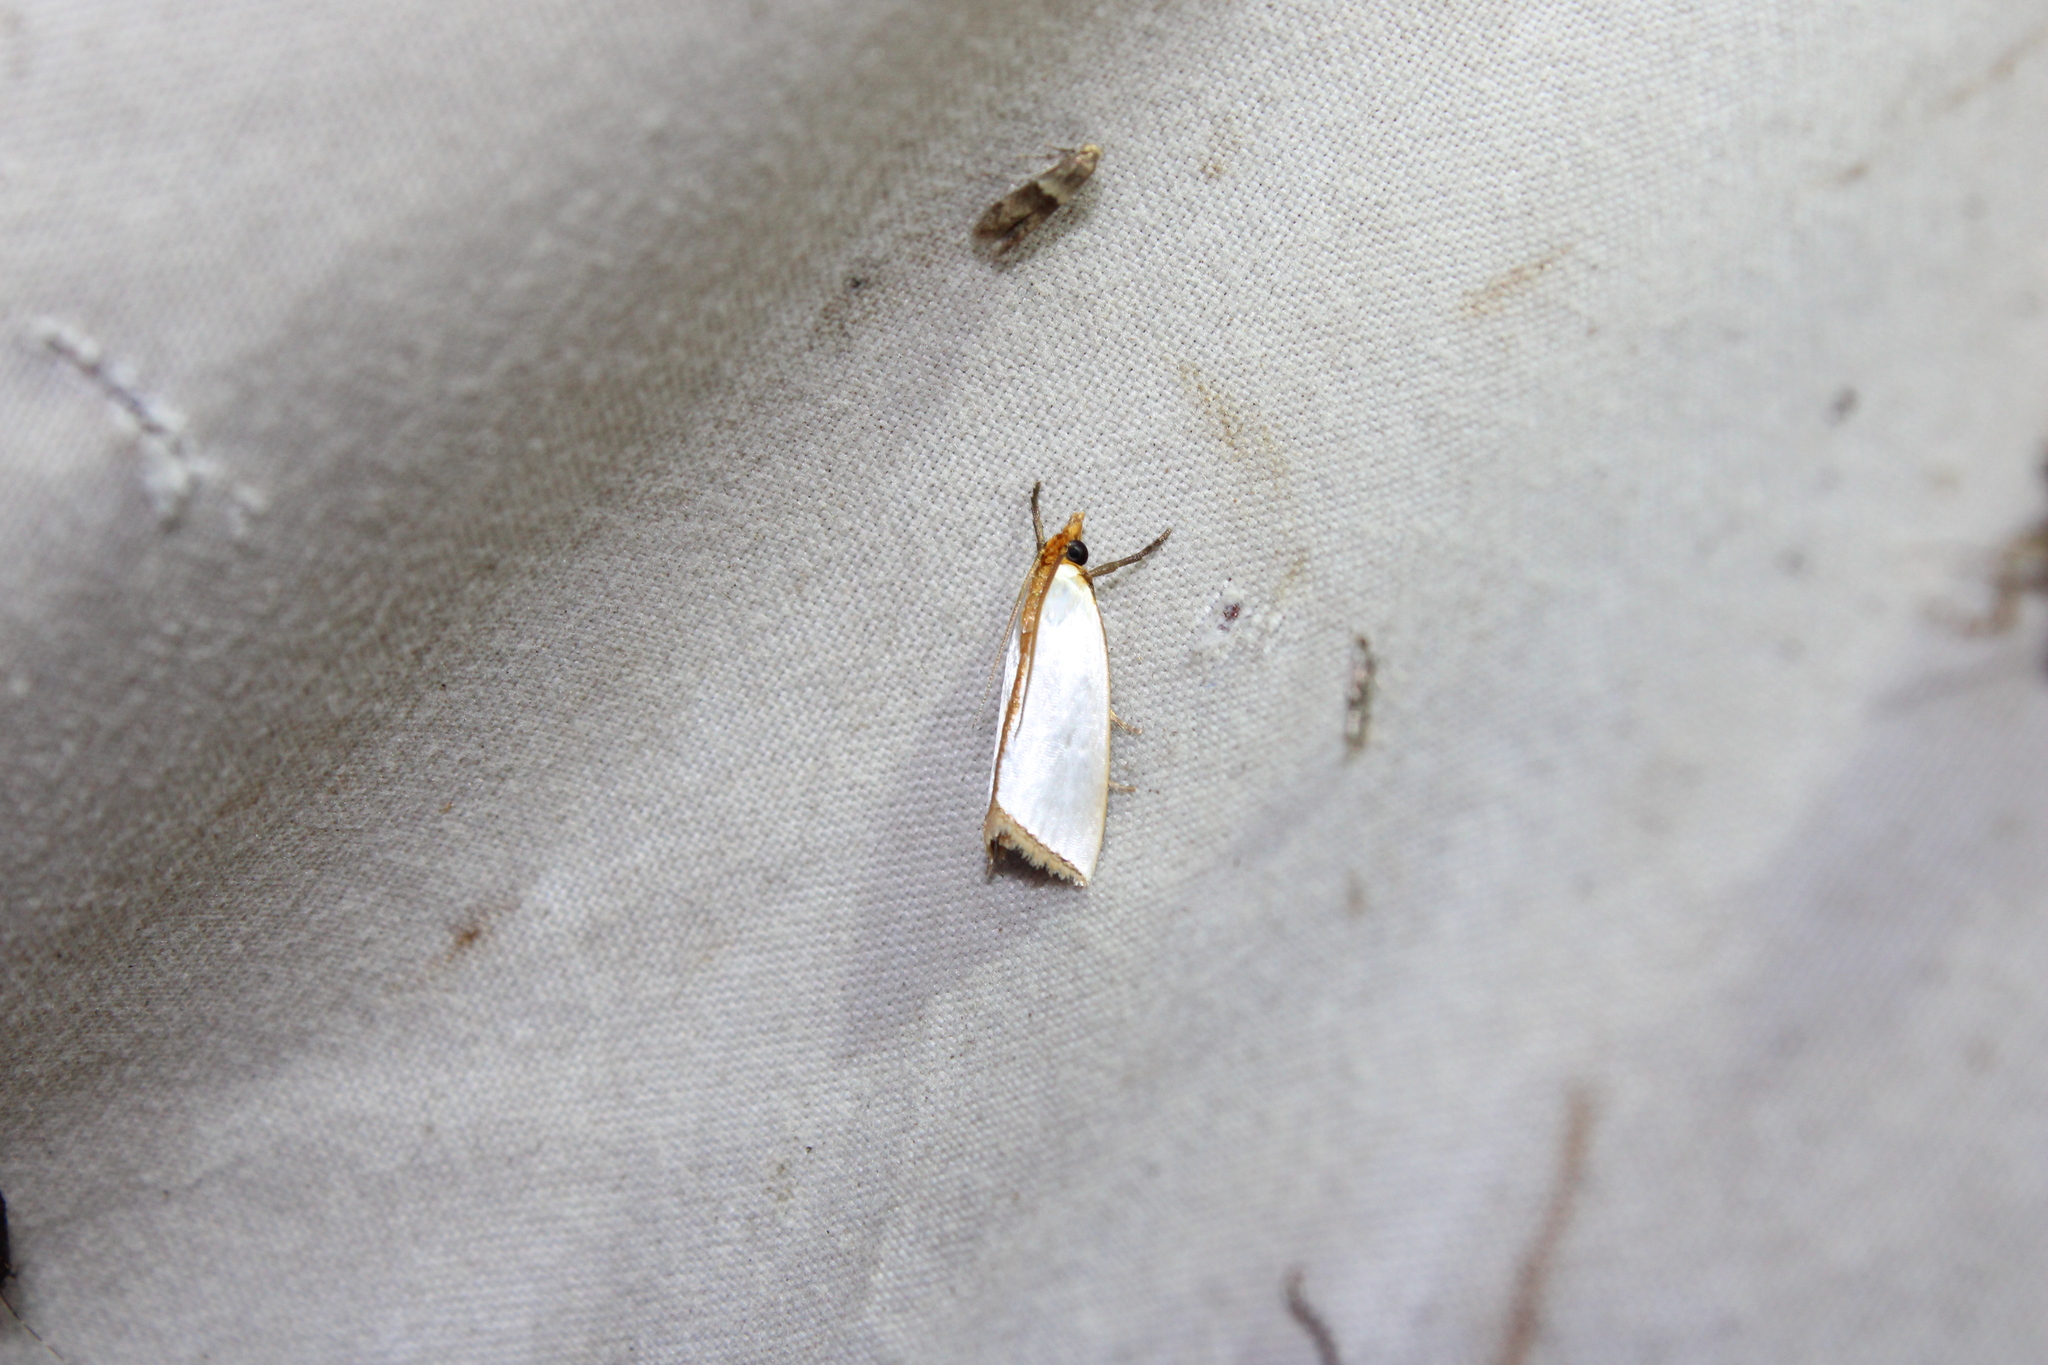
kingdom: Animalia
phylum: Arthropoda
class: Insecta
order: Lepidoptera
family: Crambidae
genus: Argyria
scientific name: Argyria
